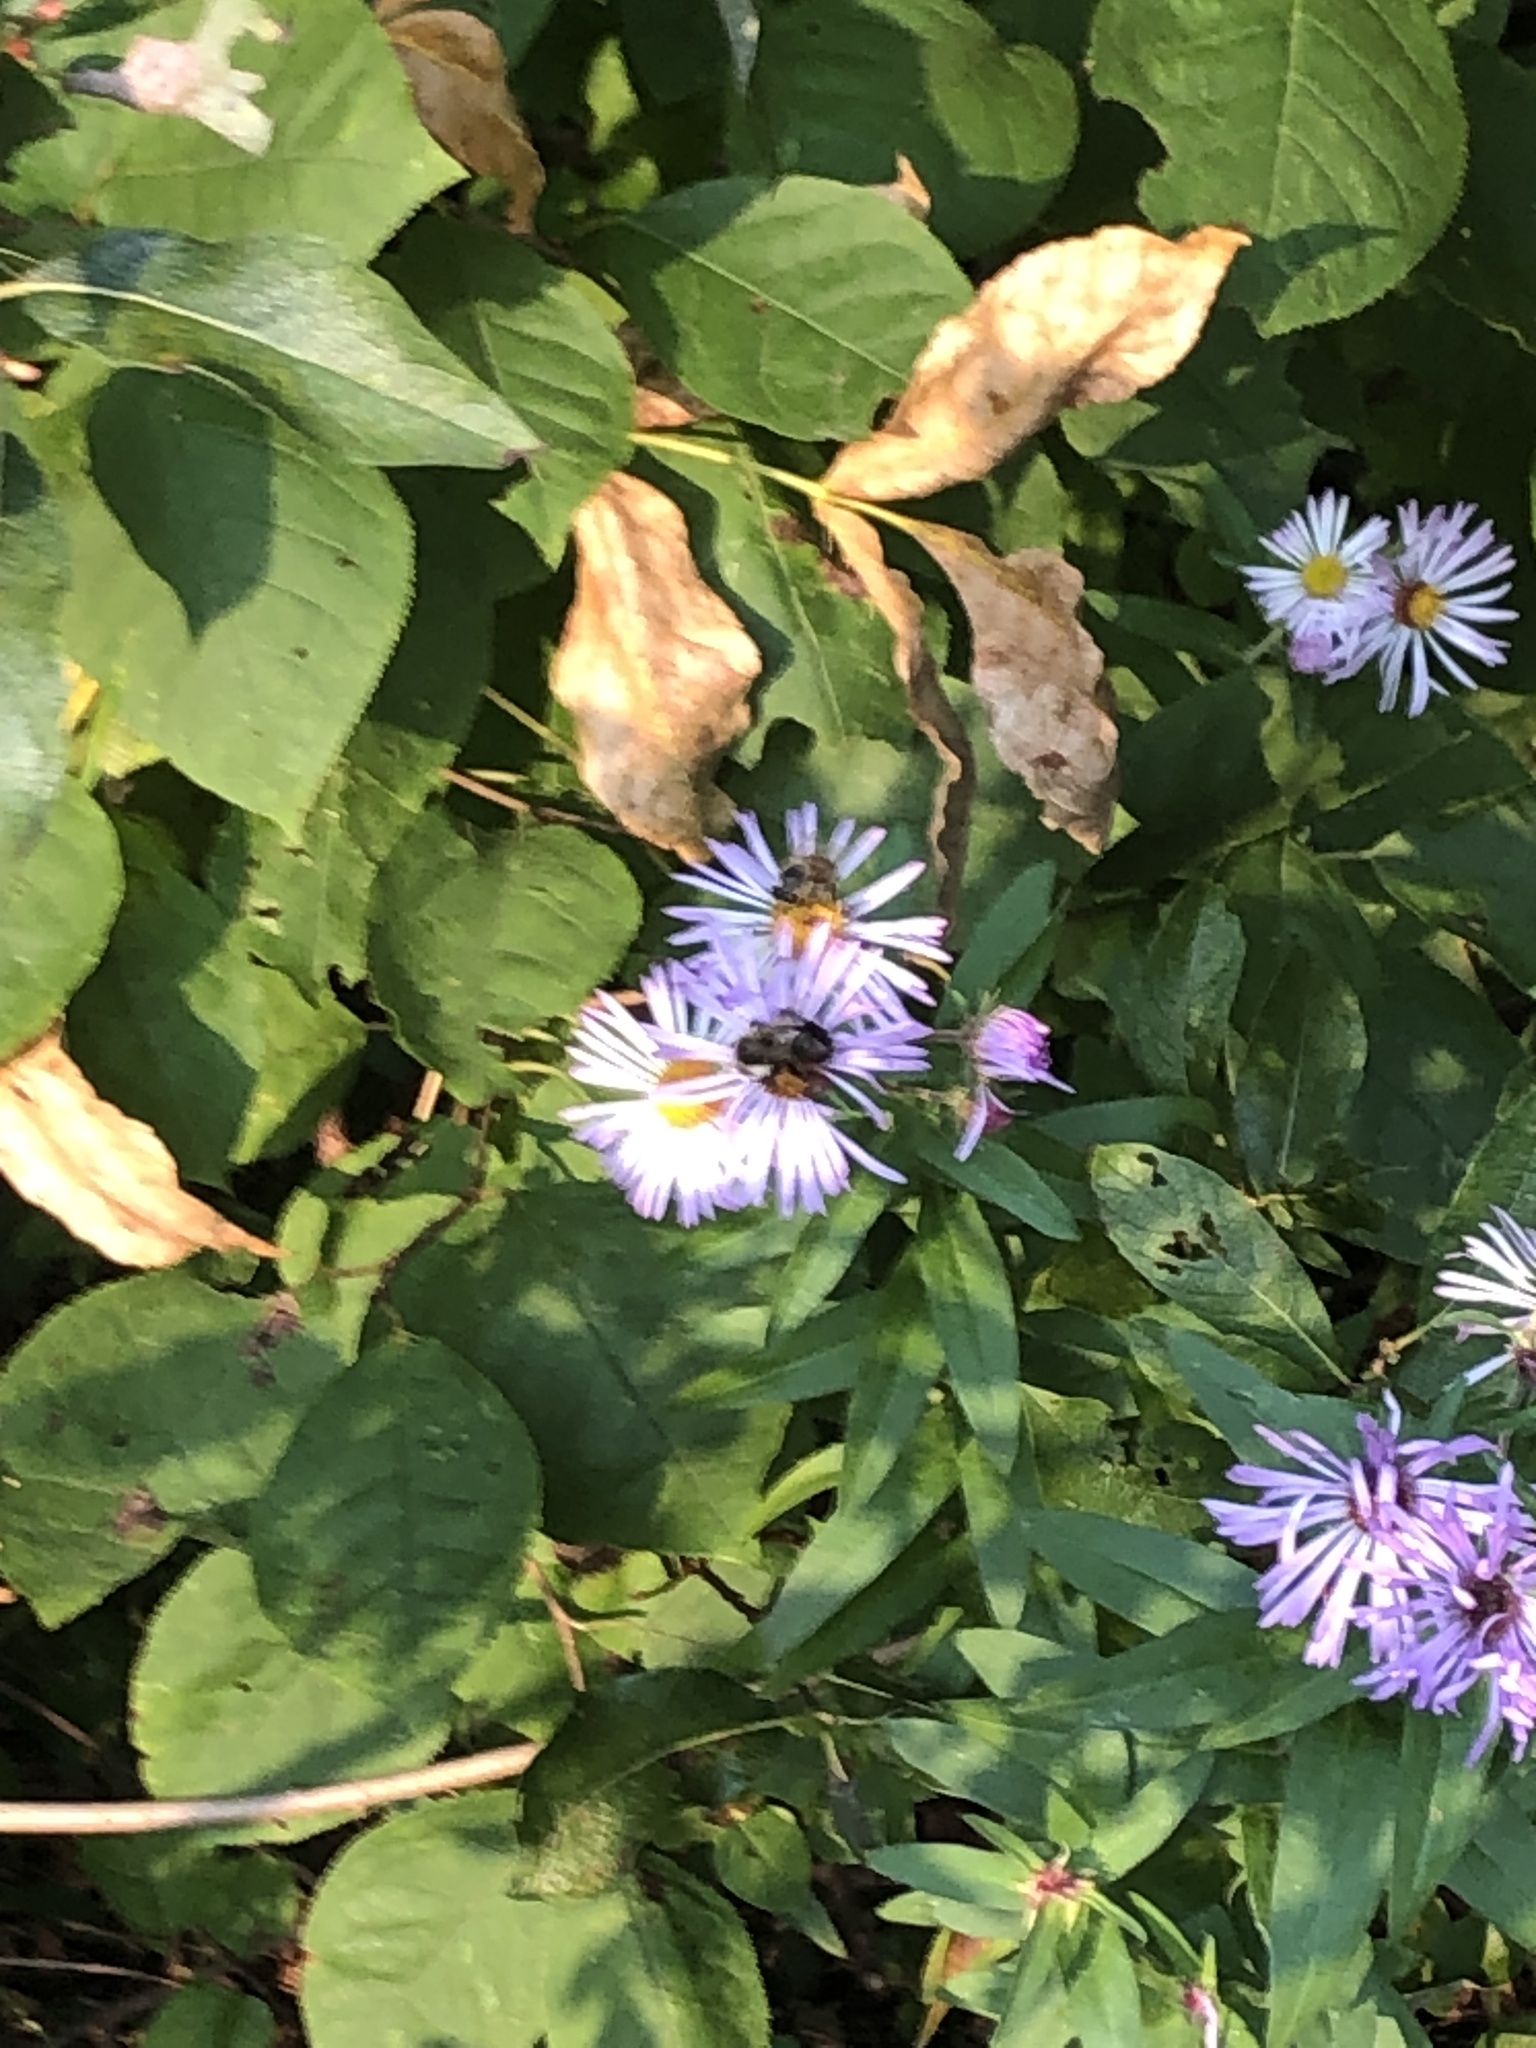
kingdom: Animalia
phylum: Arthropoda
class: Insecta
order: Hymenoptera
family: Apidae
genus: Bombus
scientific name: Bombus impatiens
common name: Common eastern bumble bee
